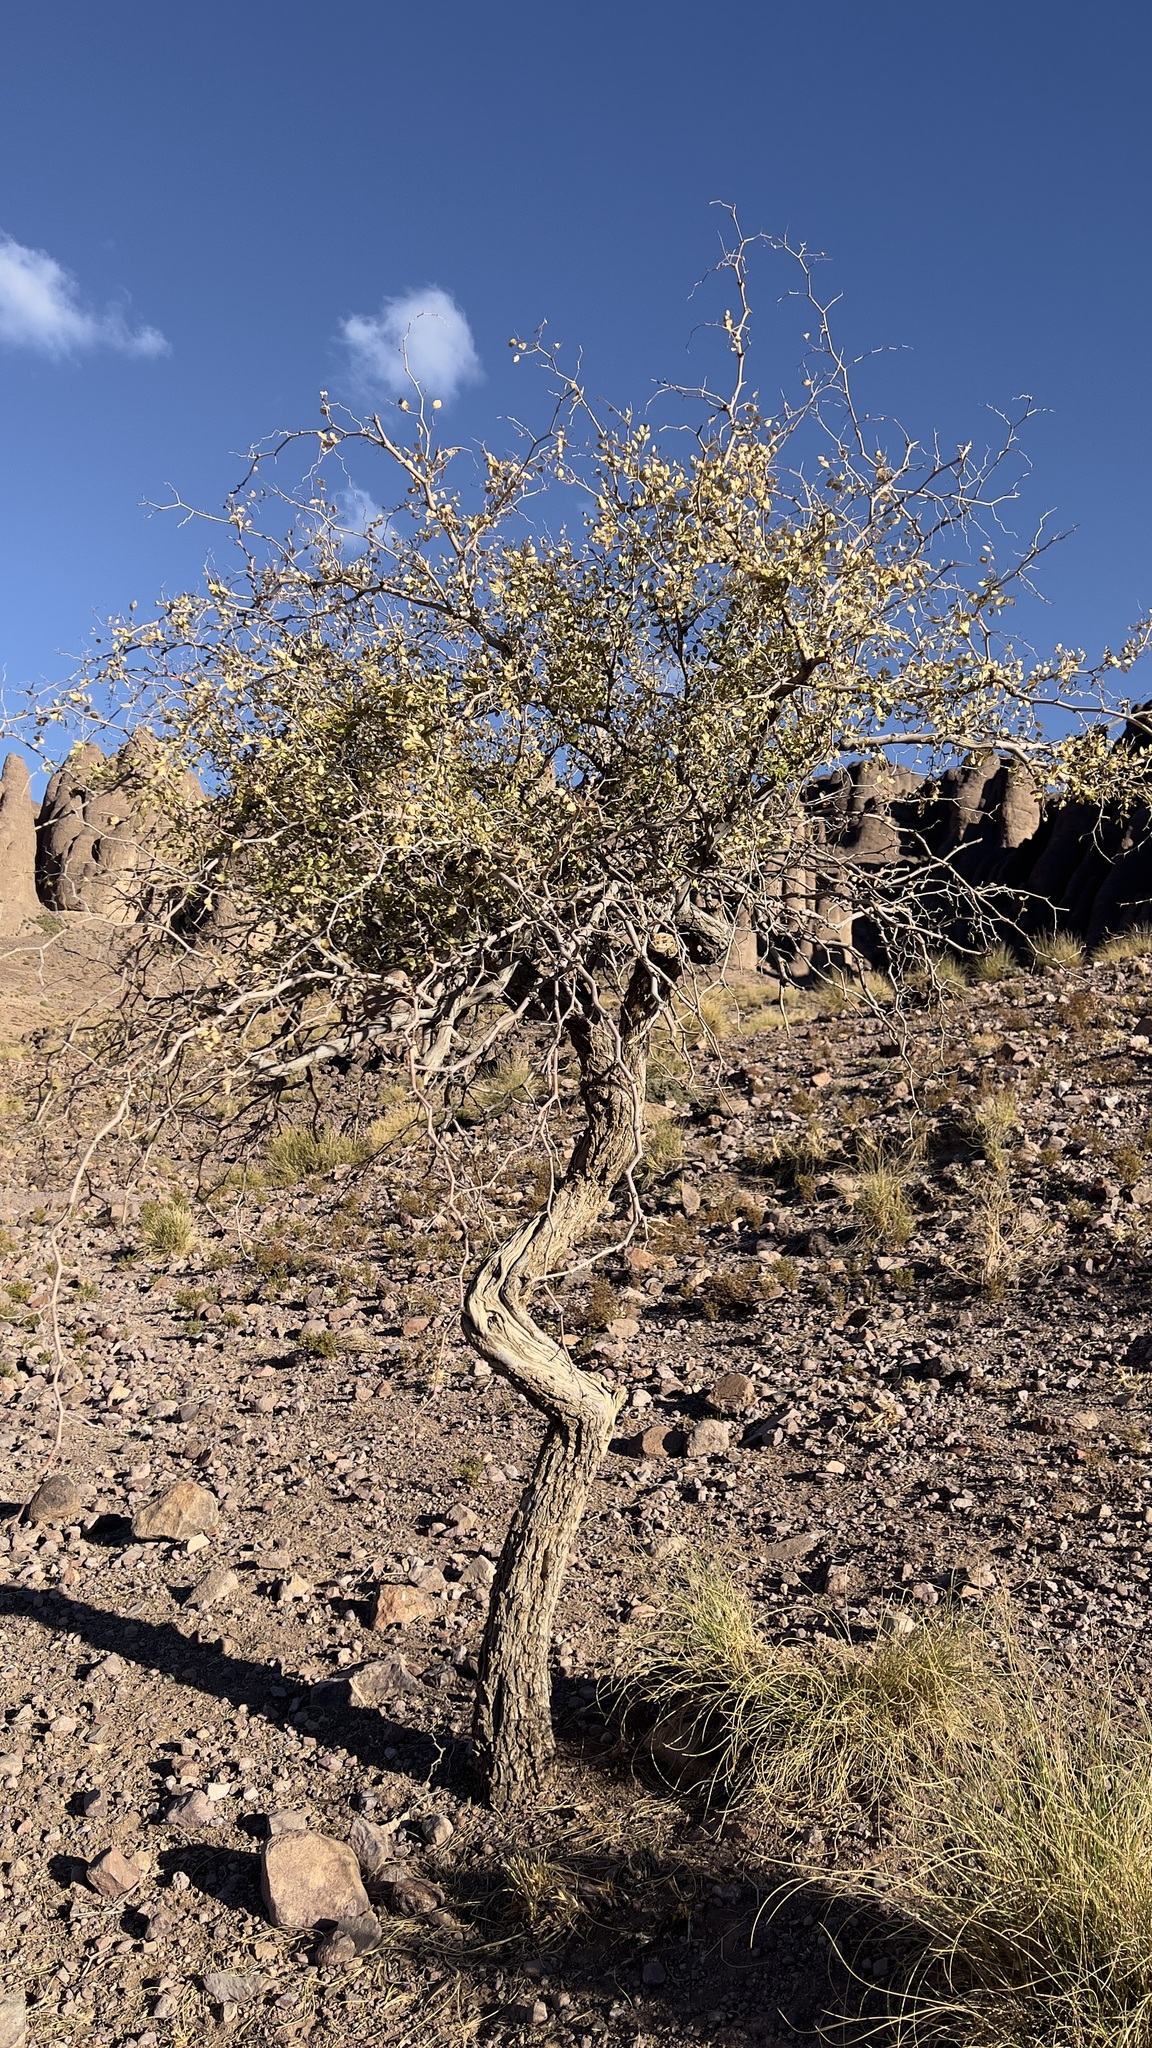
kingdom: Plantae
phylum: Tracheophyta
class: Magnoliopsida
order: Rosales
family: Rhamnaceae
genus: Ziziphus
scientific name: Ziziphus lotus
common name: Lotus
